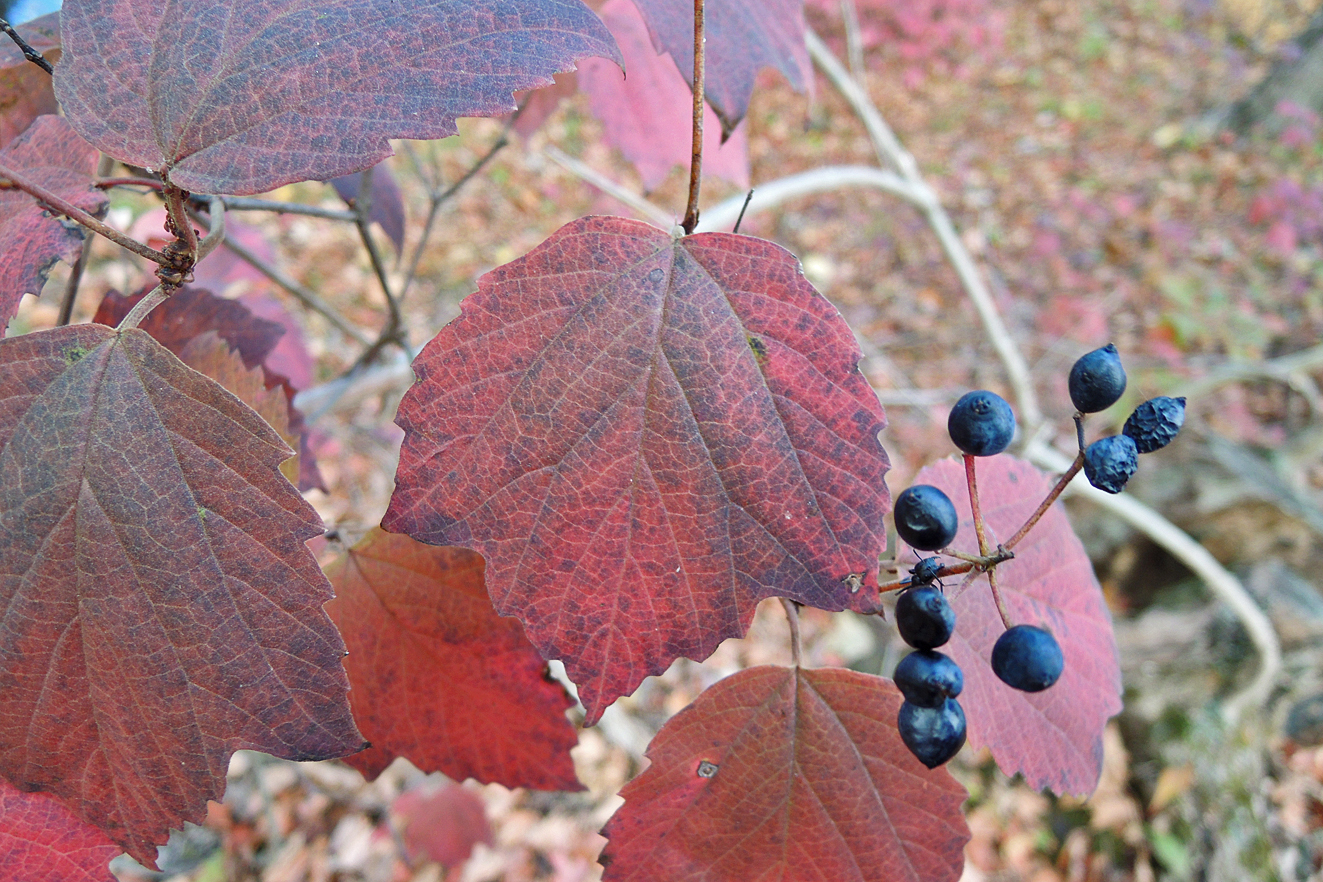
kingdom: Plantae
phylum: Tracheophyta
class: Magnoliopsida
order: Dipsacales
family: Viburnaceae
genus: Viburnum
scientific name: Viburnum acerifolium
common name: Dockmackie
